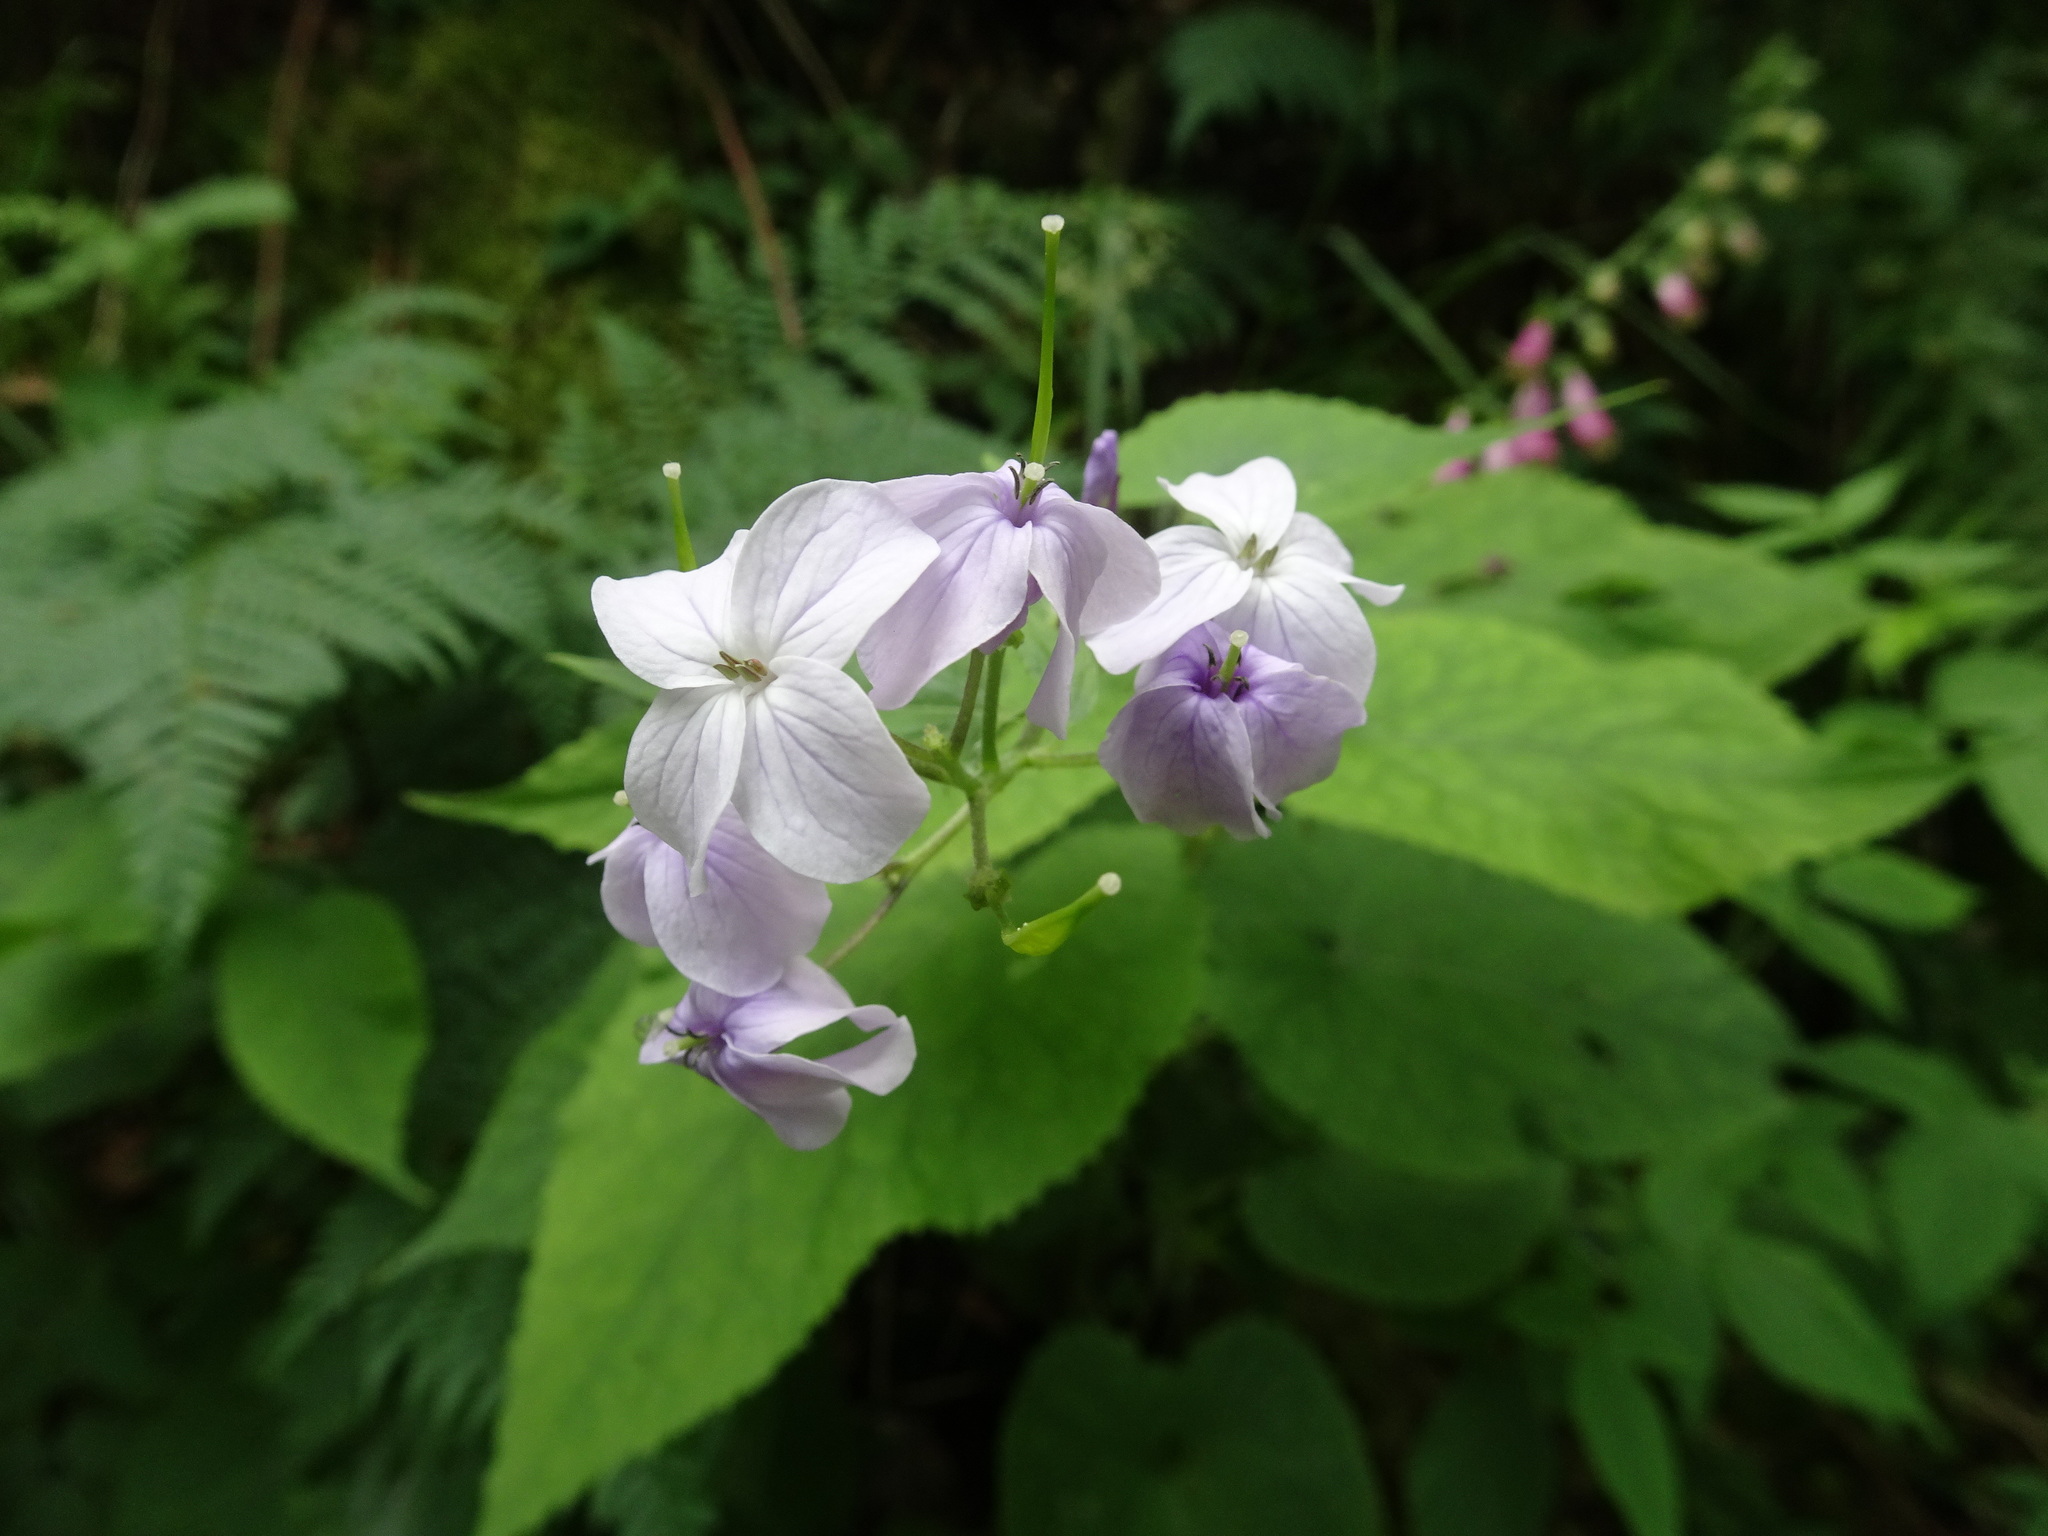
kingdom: Plantae
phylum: Tracheophyta
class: Magnoliopsida
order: Brassicales
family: Brassicaceae
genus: Lunaria
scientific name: Lunaria rediviva
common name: Perennial honesty
